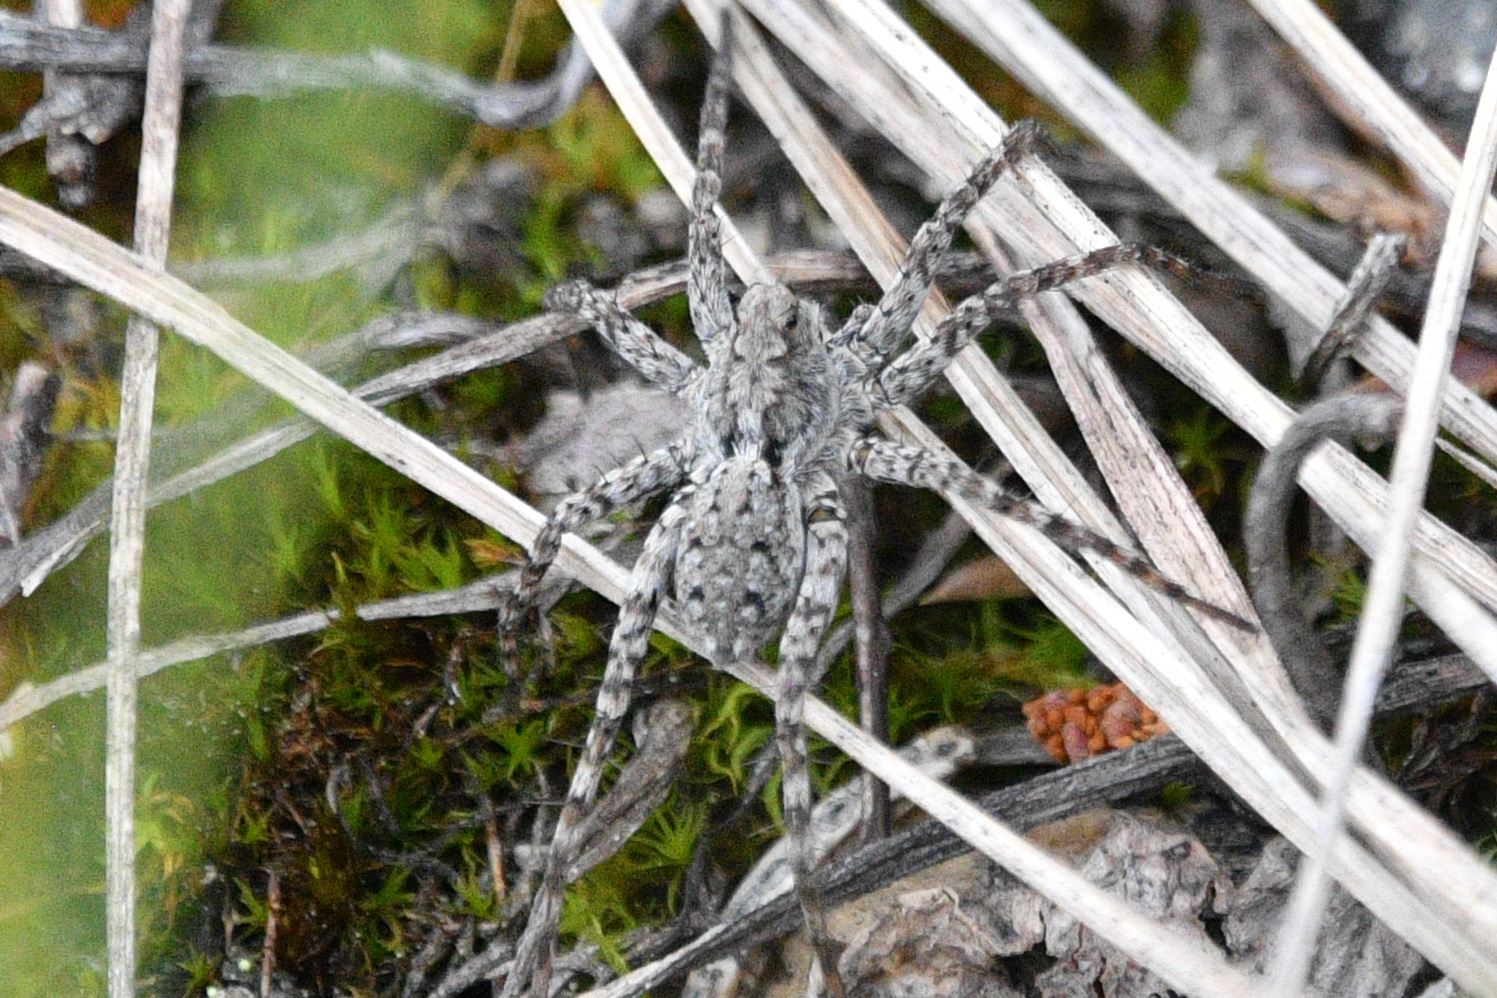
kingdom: Animalia
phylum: Arthropoda
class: Arachnida
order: Araneae
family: Lycosidae
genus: Pardosa
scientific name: Pardosa uintana
